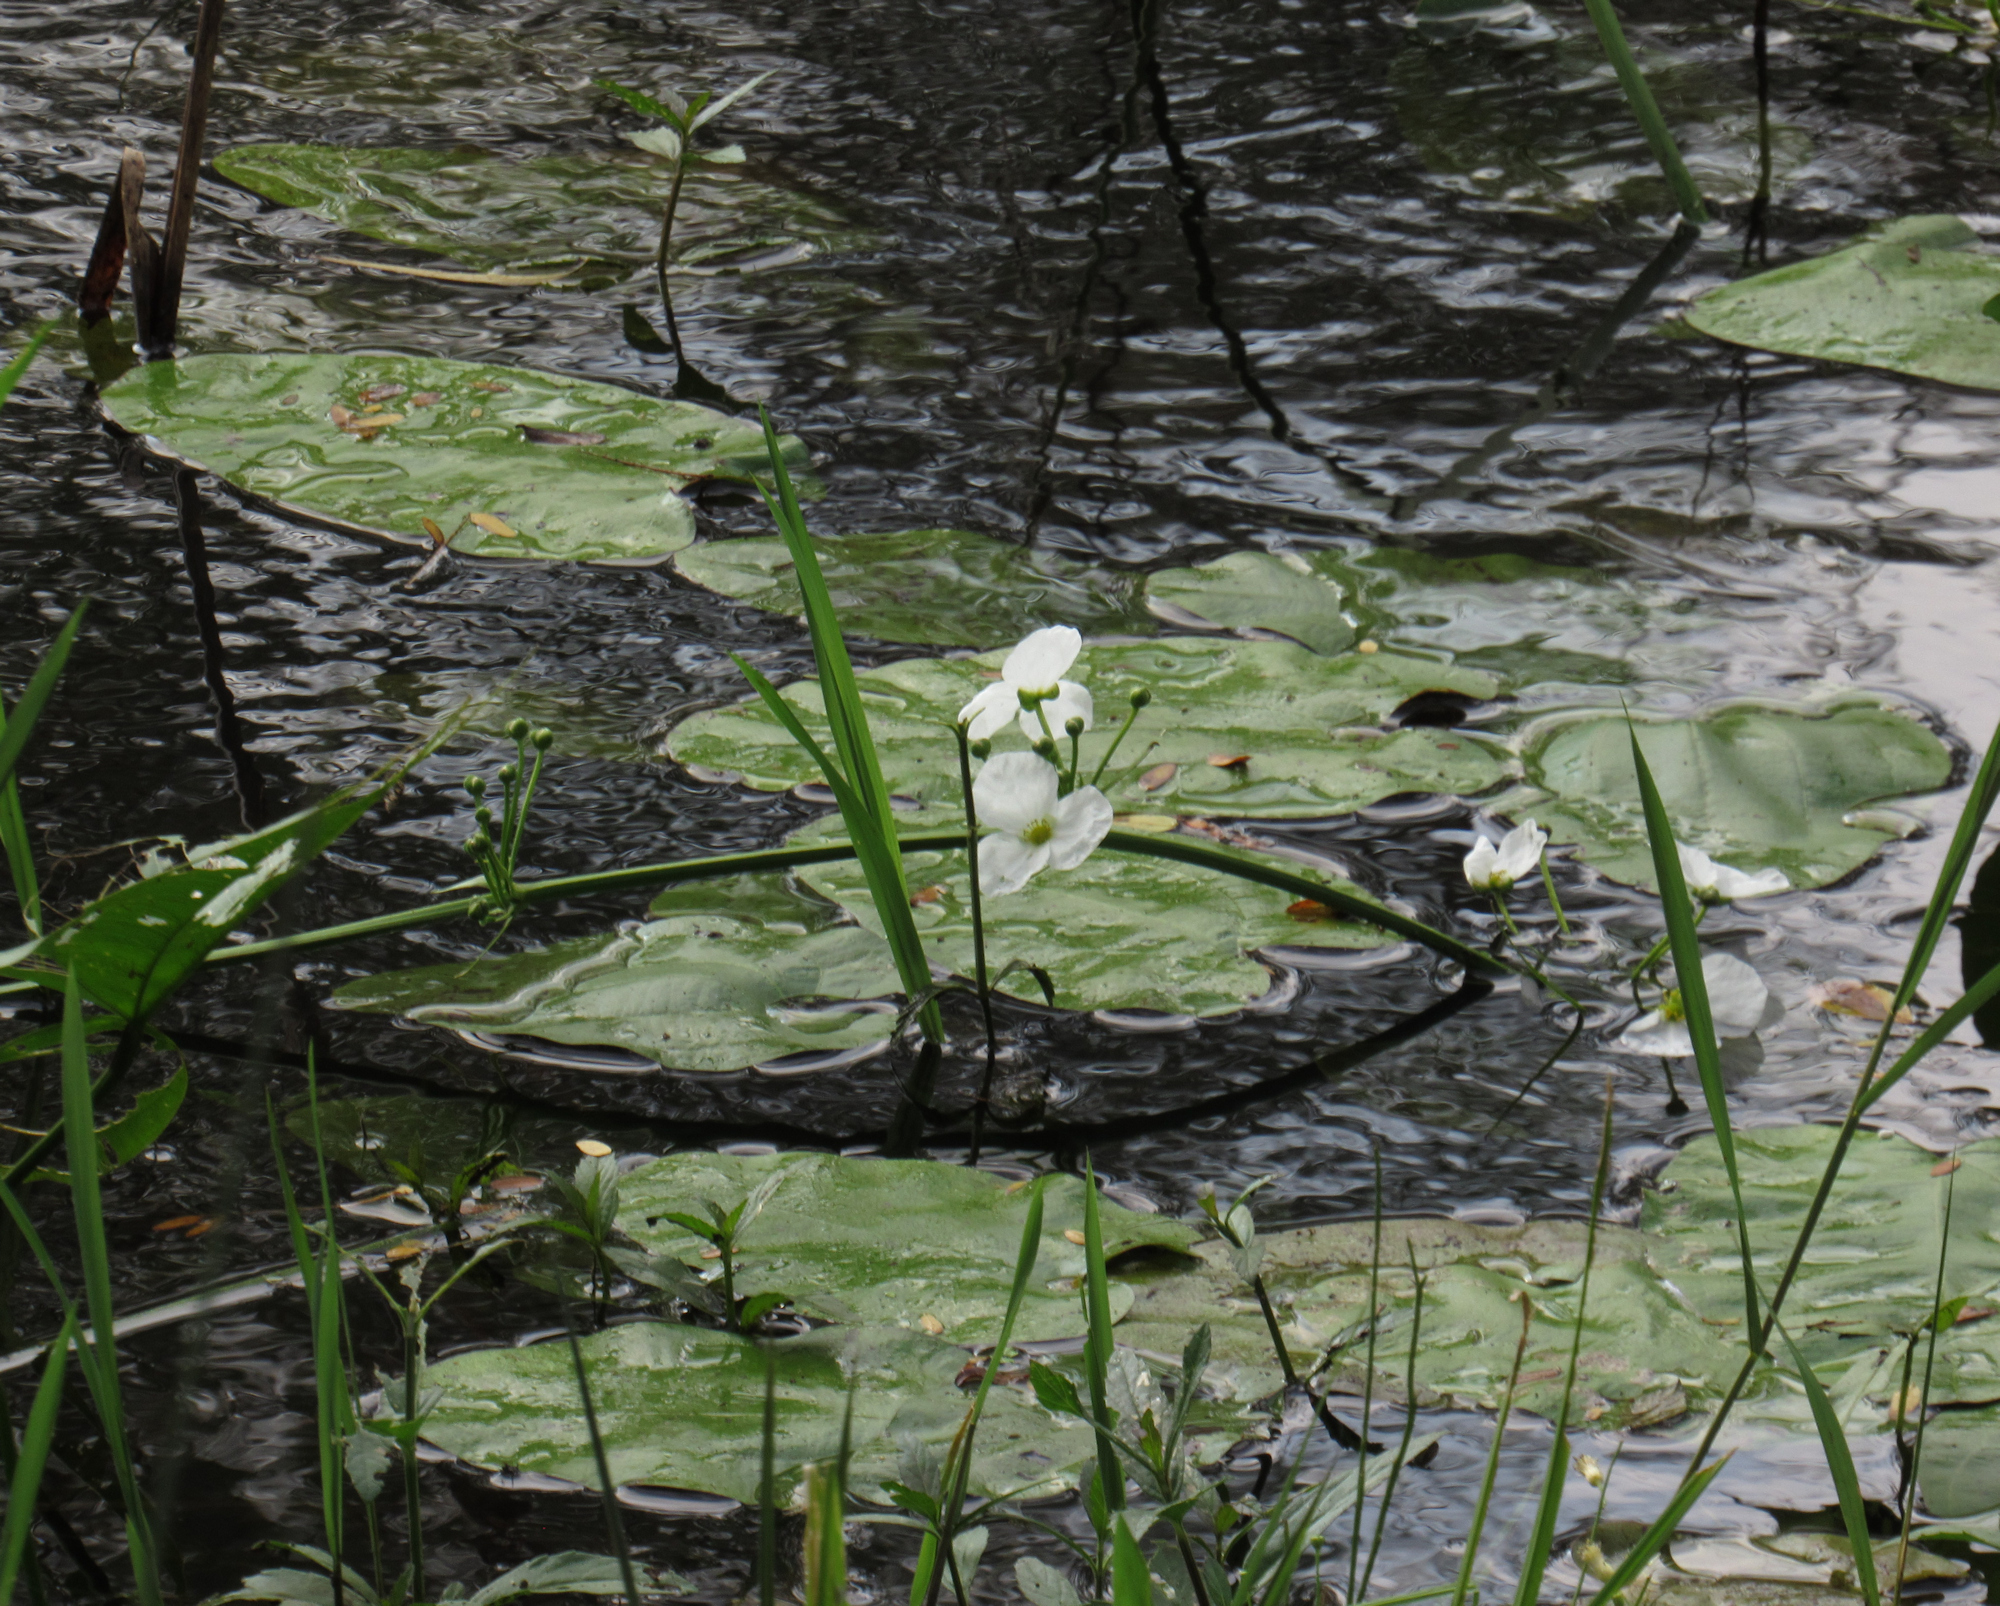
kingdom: Plantae
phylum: Tracheophyta
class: Liliopsida
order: Alismatales
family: Alismataceae
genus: Aquarius
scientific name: Aquarius cordifolius
